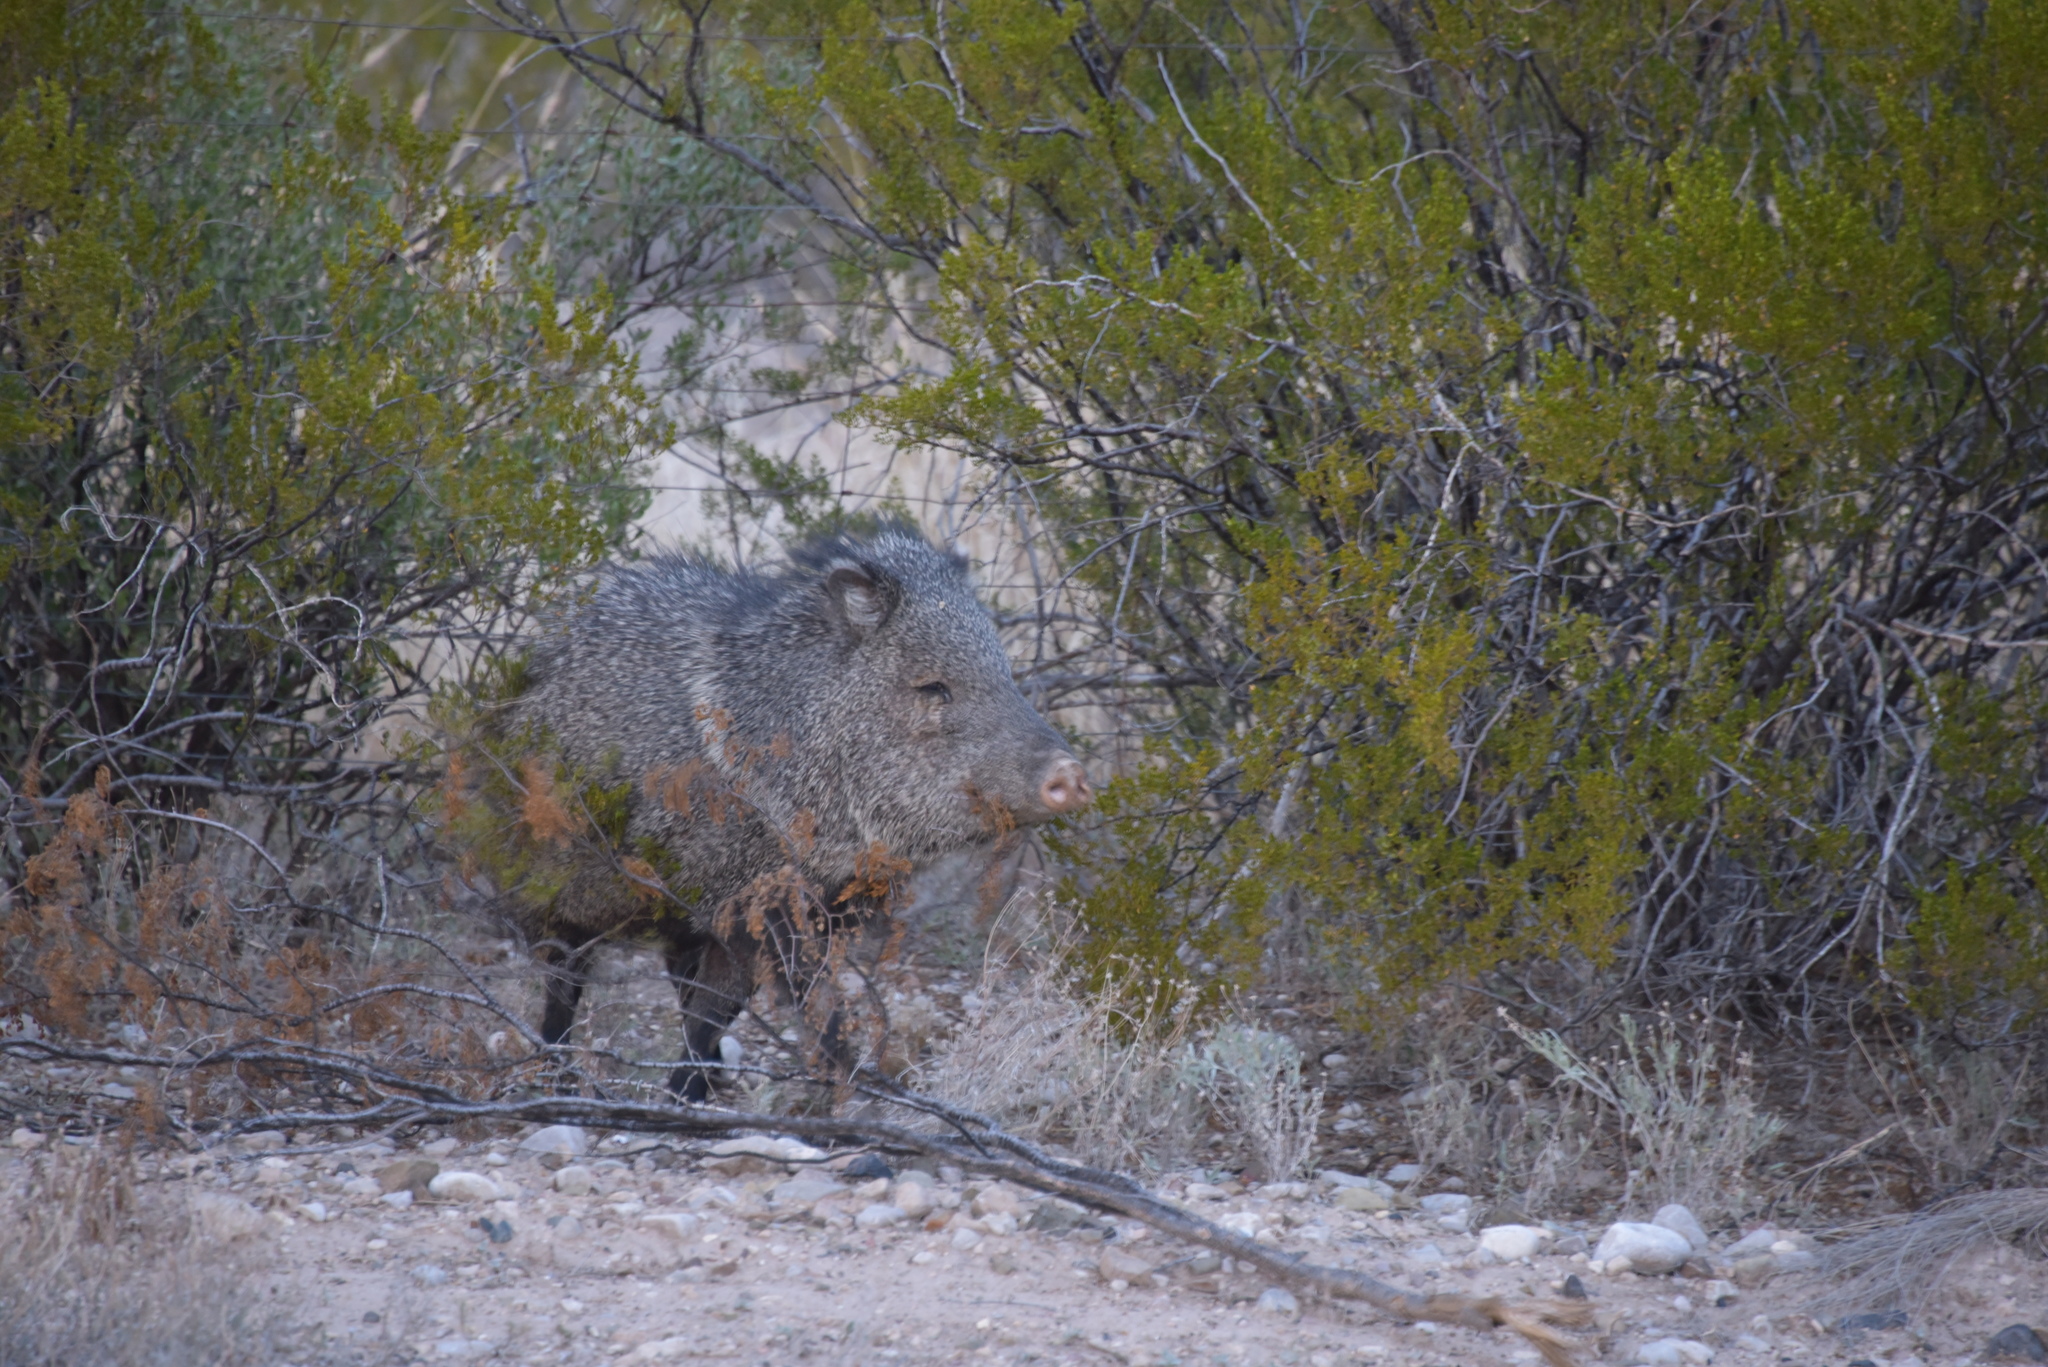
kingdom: Animalia
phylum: Chordata
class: Mammalia
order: Artiodactyla
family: Tayassuidae
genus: Pecari
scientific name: Pecari tajacu
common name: Collared peccary
